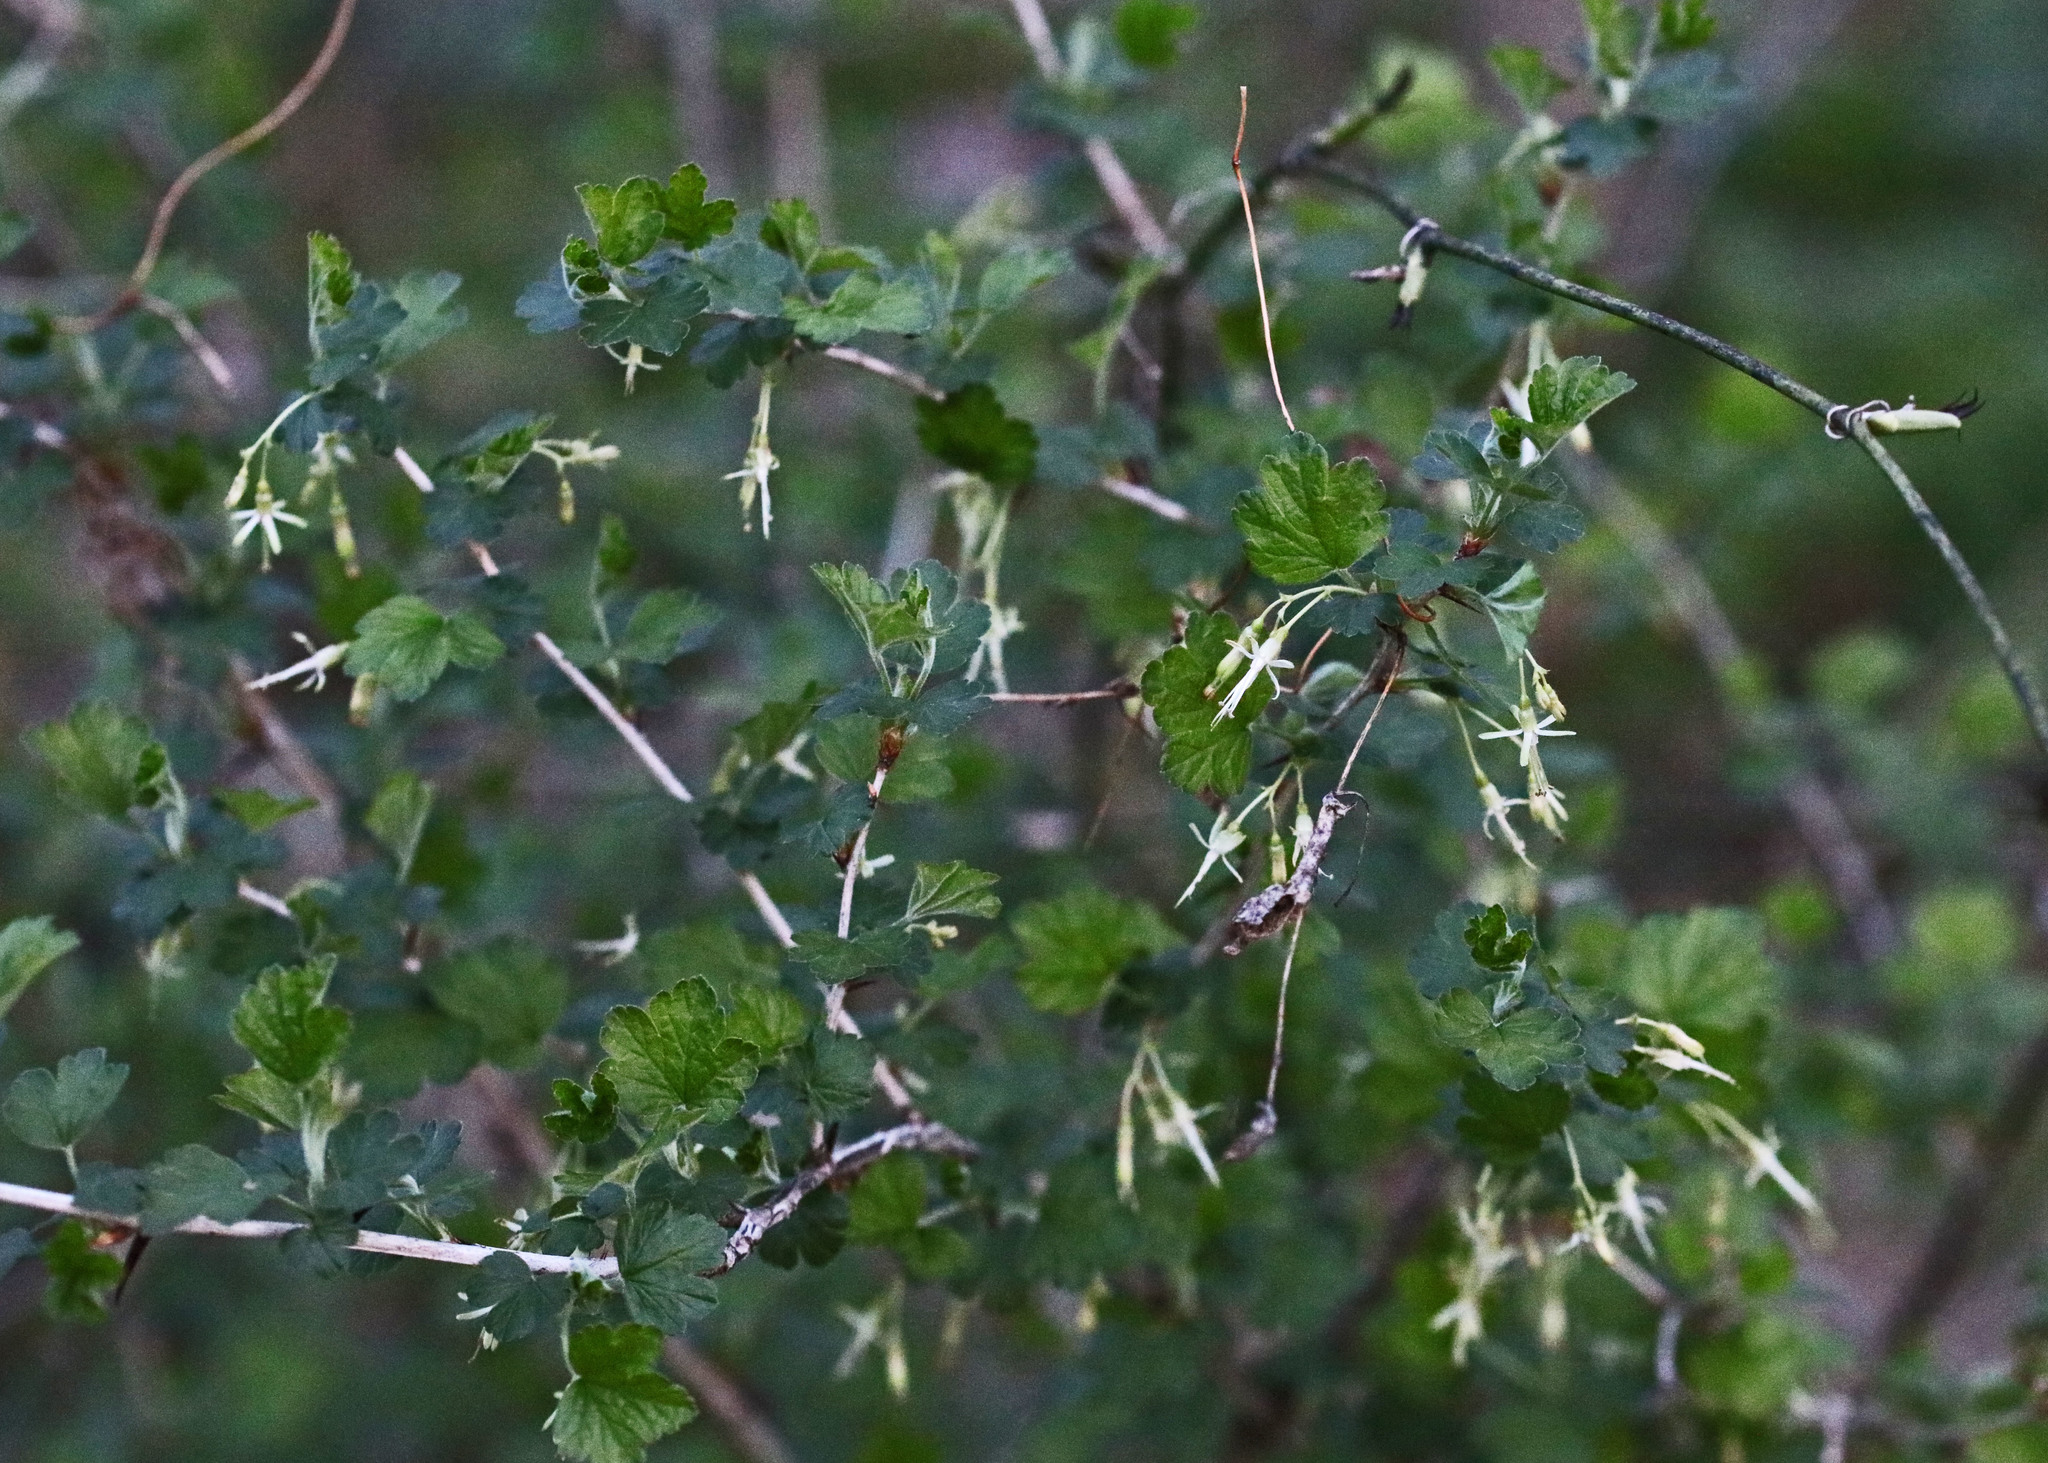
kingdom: Plantae
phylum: Tracheophyta
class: Magnoliopsida
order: Saxifragales
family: Grossulariaceae
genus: Ribes
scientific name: Ribes missouriense
